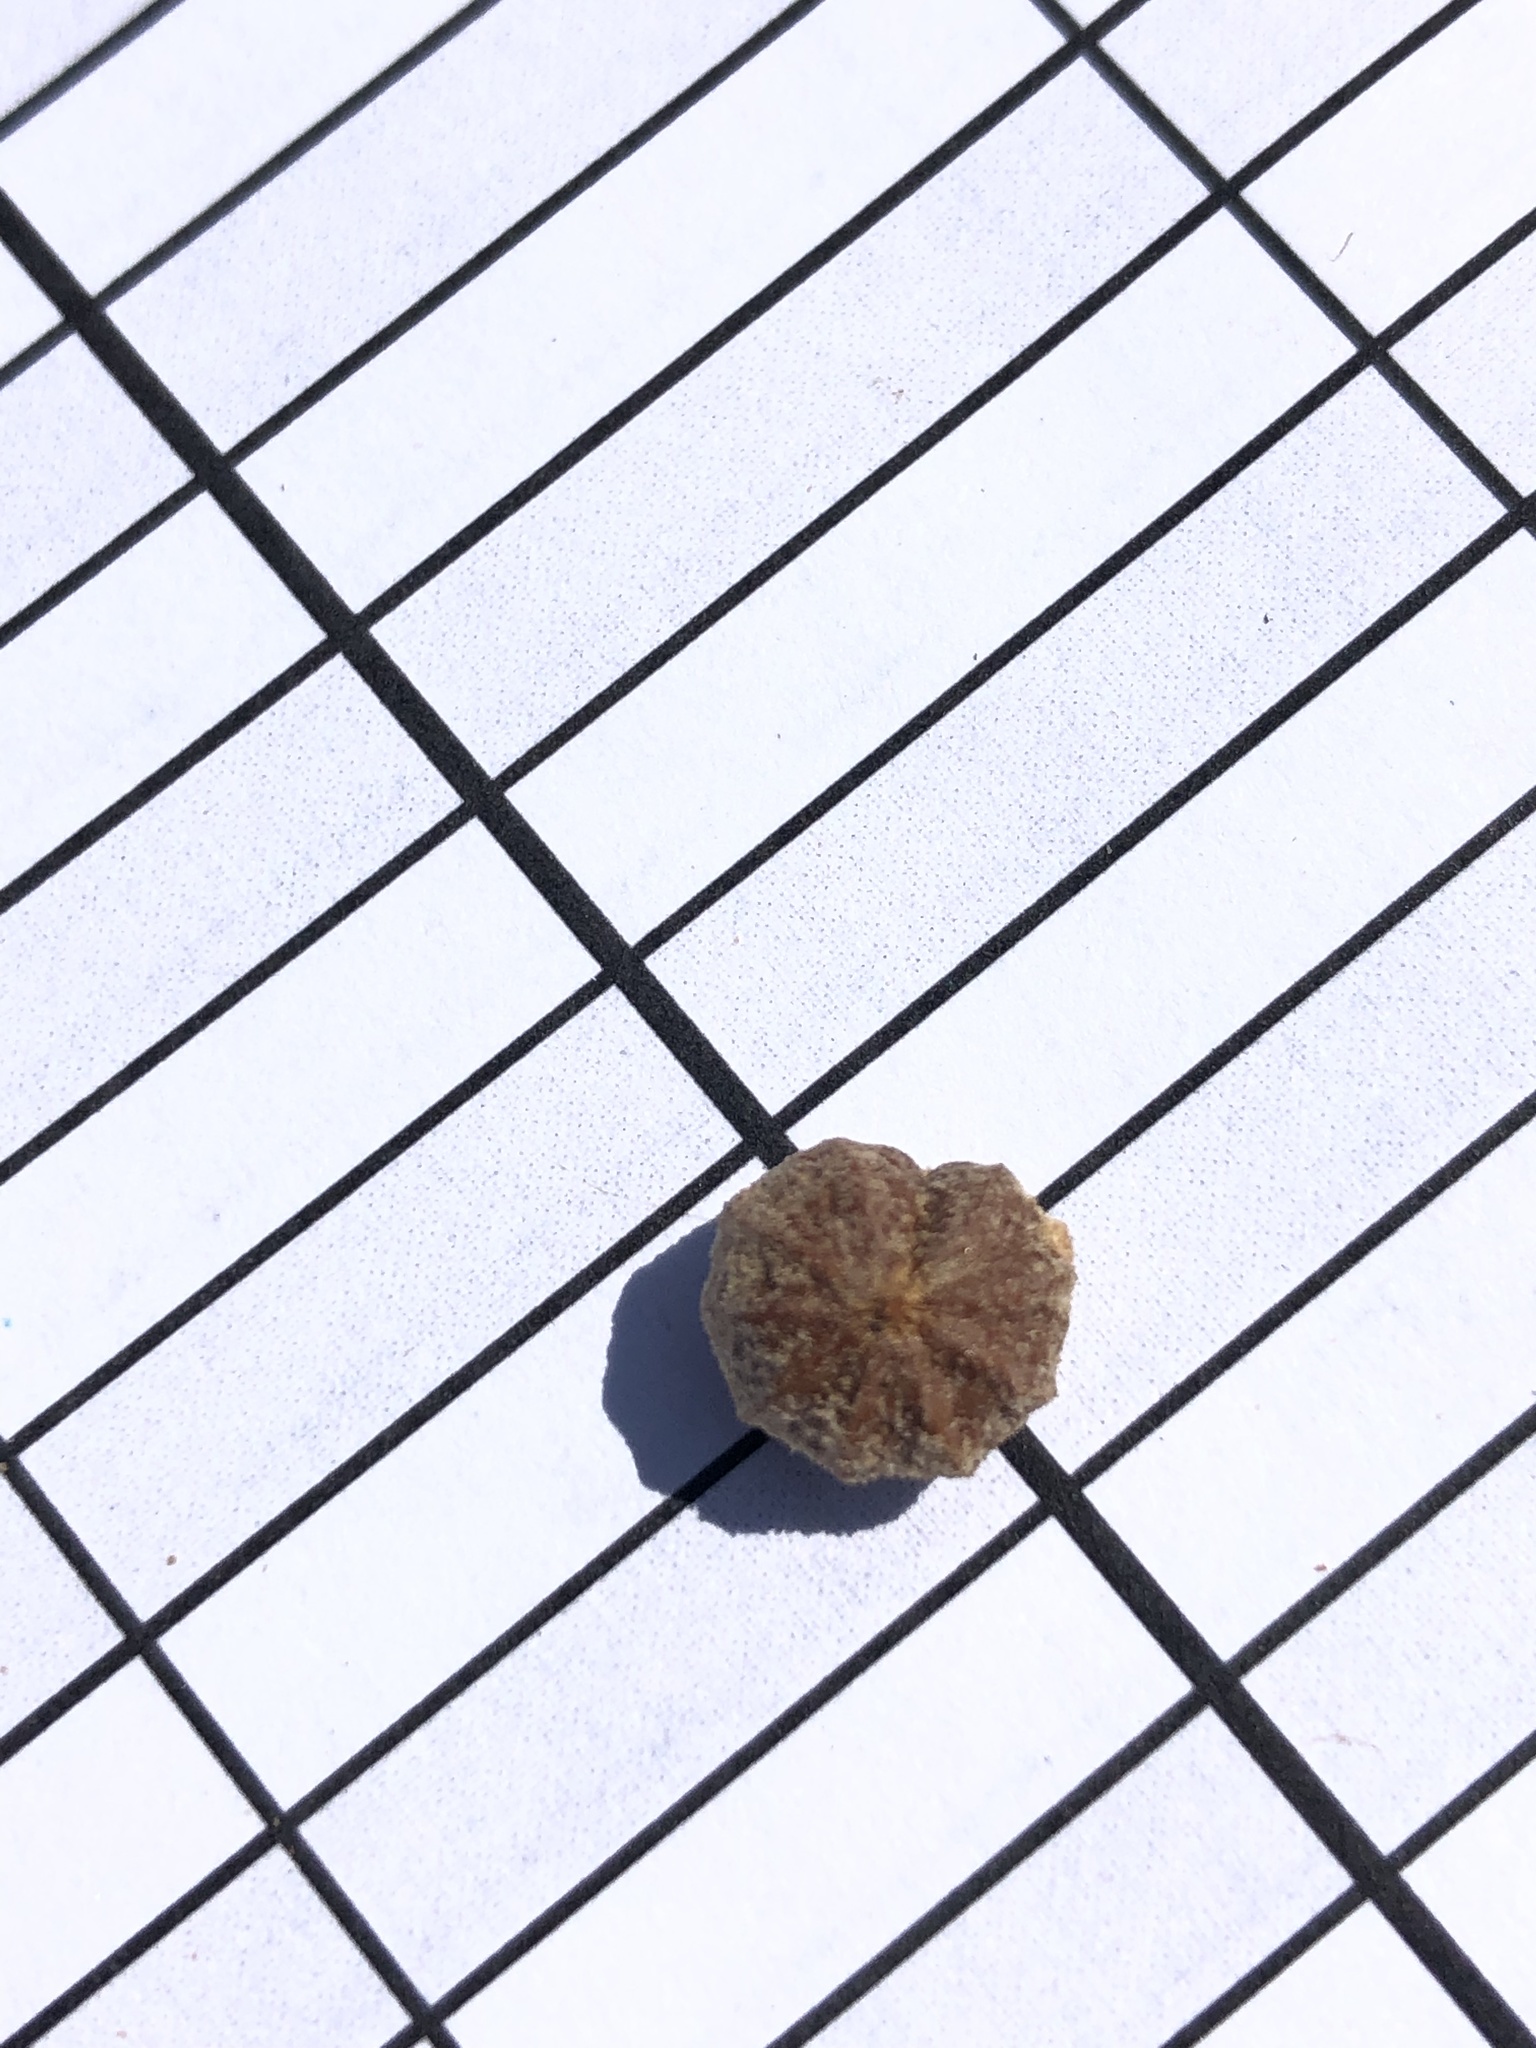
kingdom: Plantae
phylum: Tracheophyta
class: Magnoliopsida
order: Ericales
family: Ericaceae
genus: Arctostaphylos
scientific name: Arctostaphylos glandulosa
